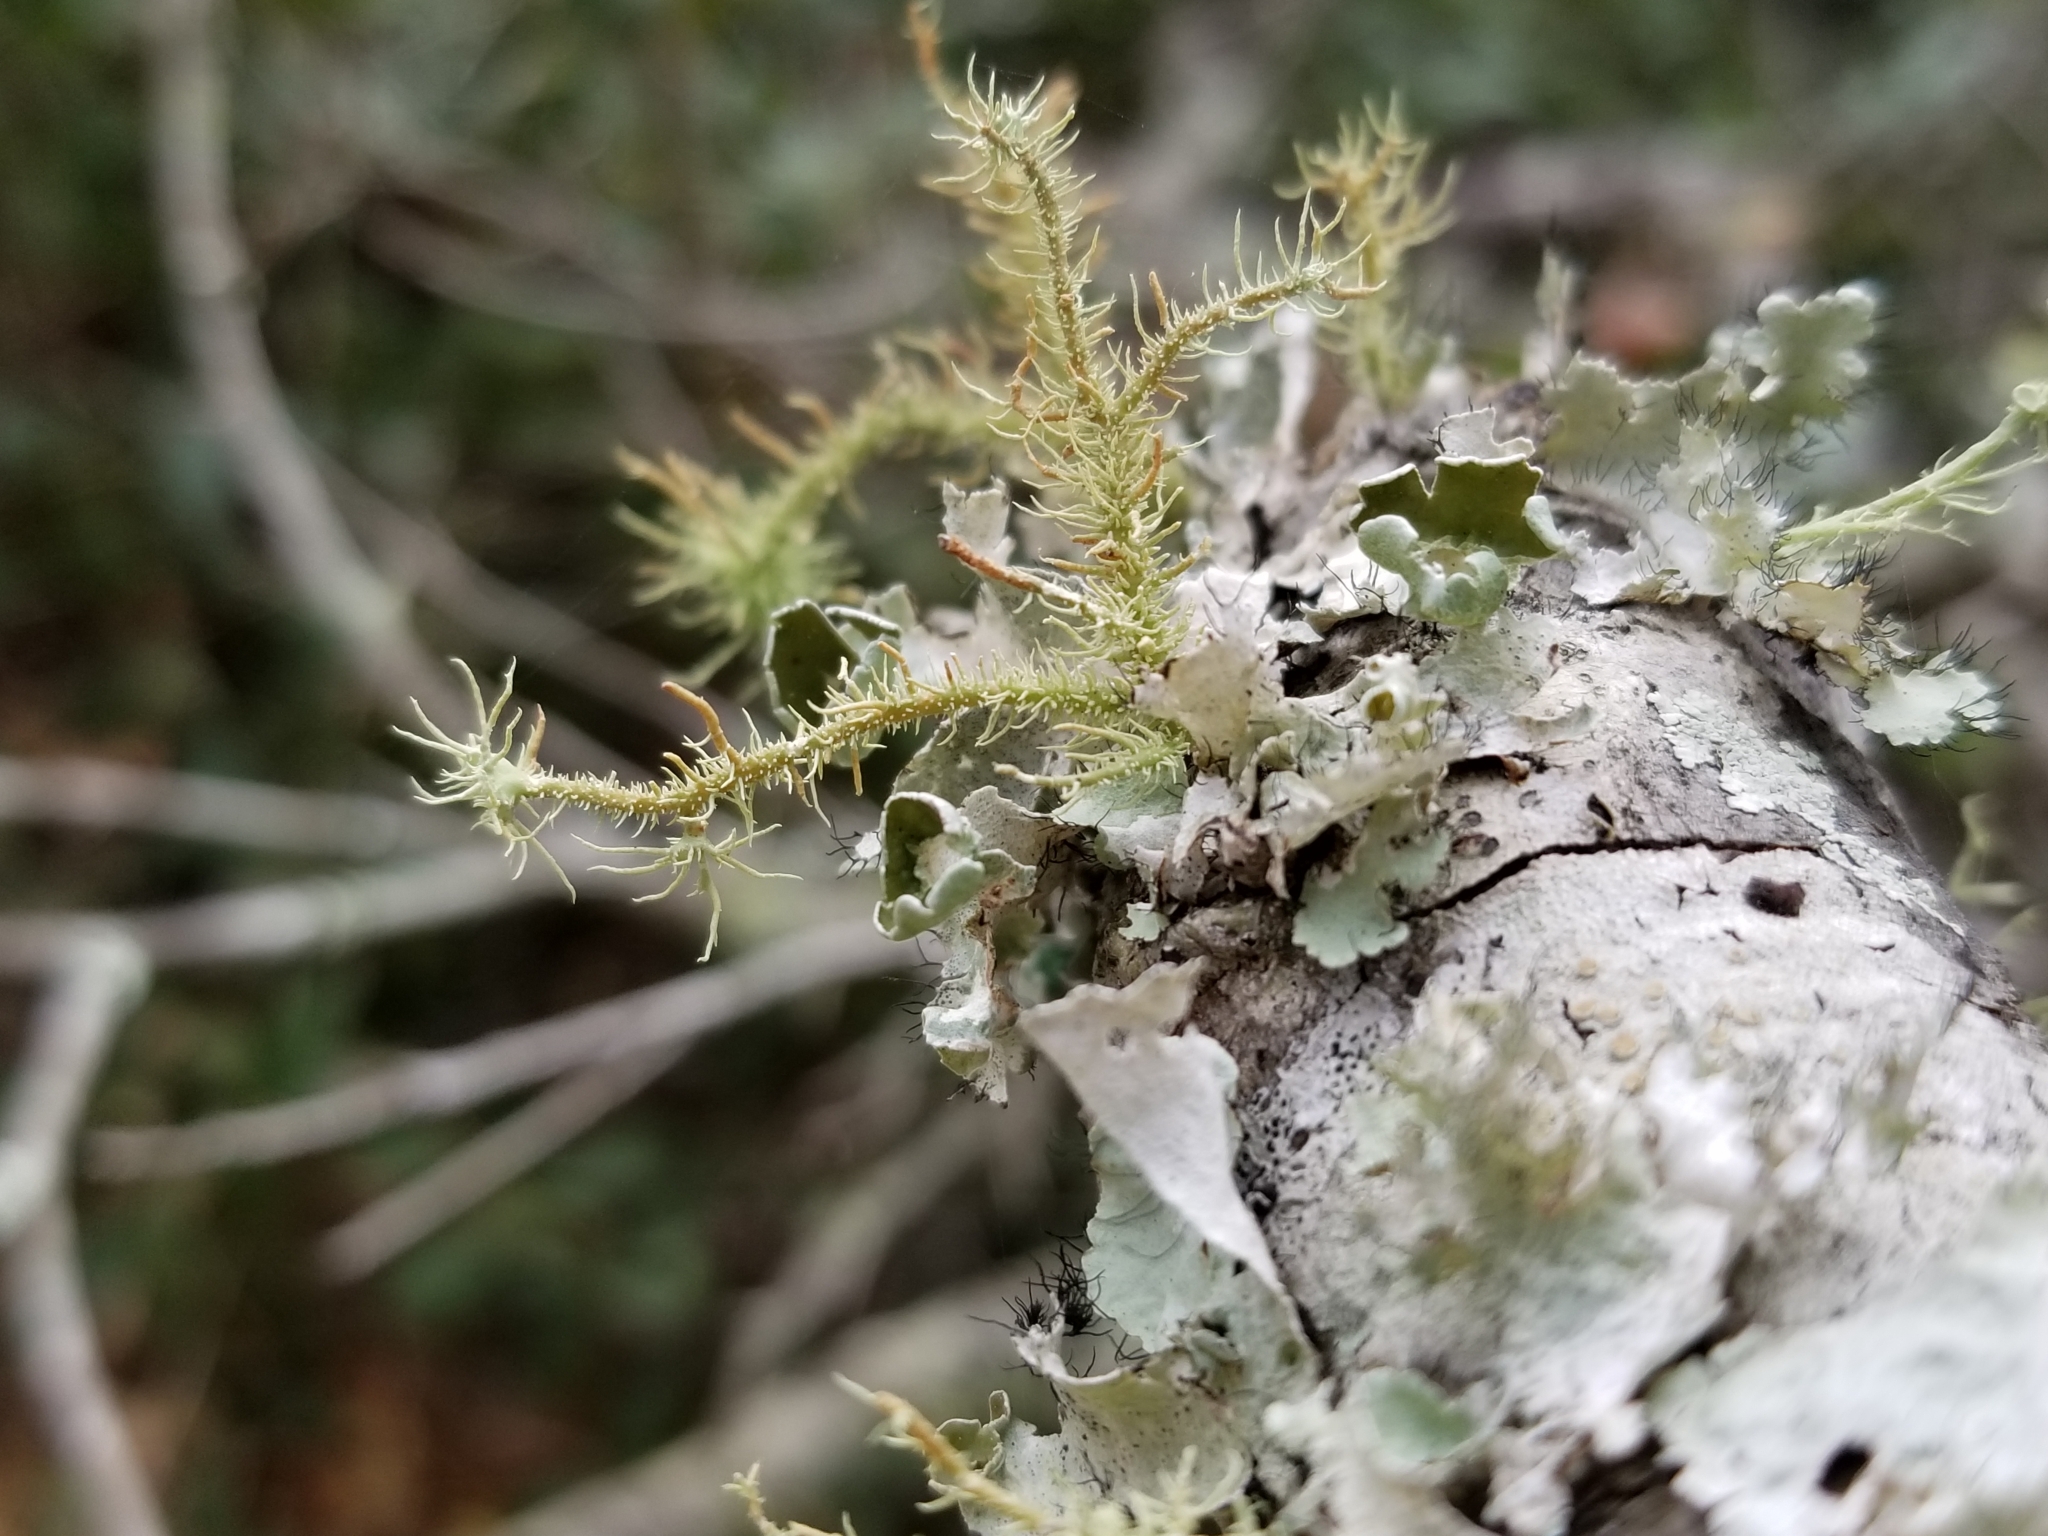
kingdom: Fungi
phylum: Ascomycota
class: Lecanoromycetes
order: Lecanorales
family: Parmeliaceae
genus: Parmotrema
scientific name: Parmotrema perforatum
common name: Perforated ruffle lichen
